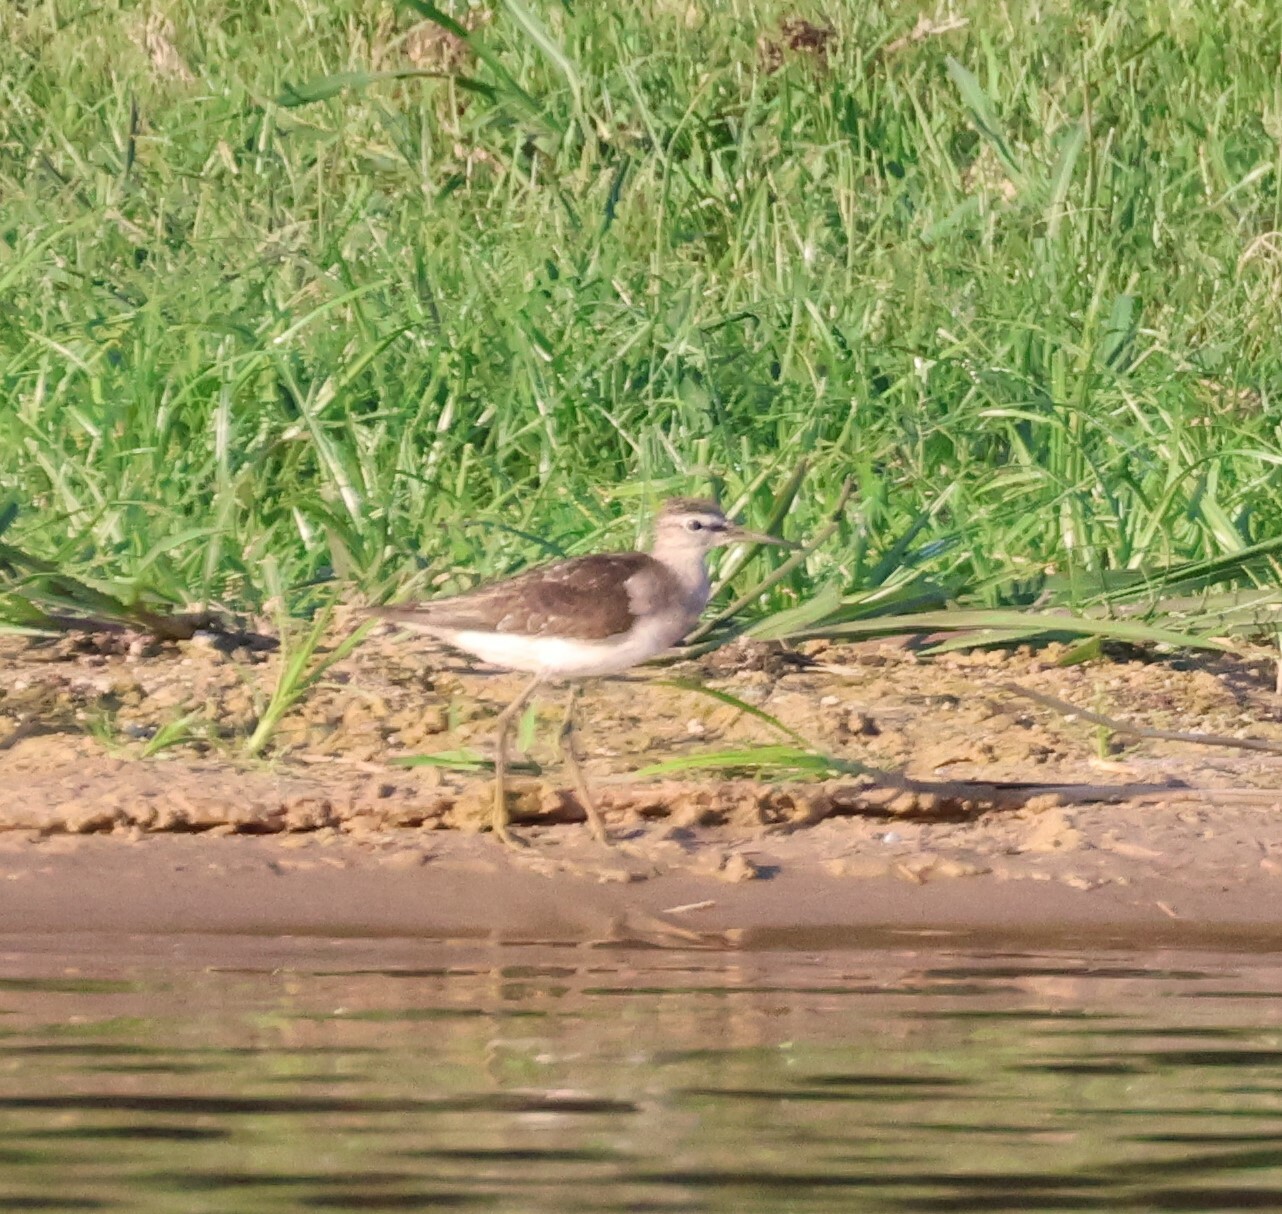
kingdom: Animalia
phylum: Chordata
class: Aves
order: Charadriiformes
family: Scolopacidae
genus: Tringa
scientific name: Tringa glareola
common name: Wood sandpiper
